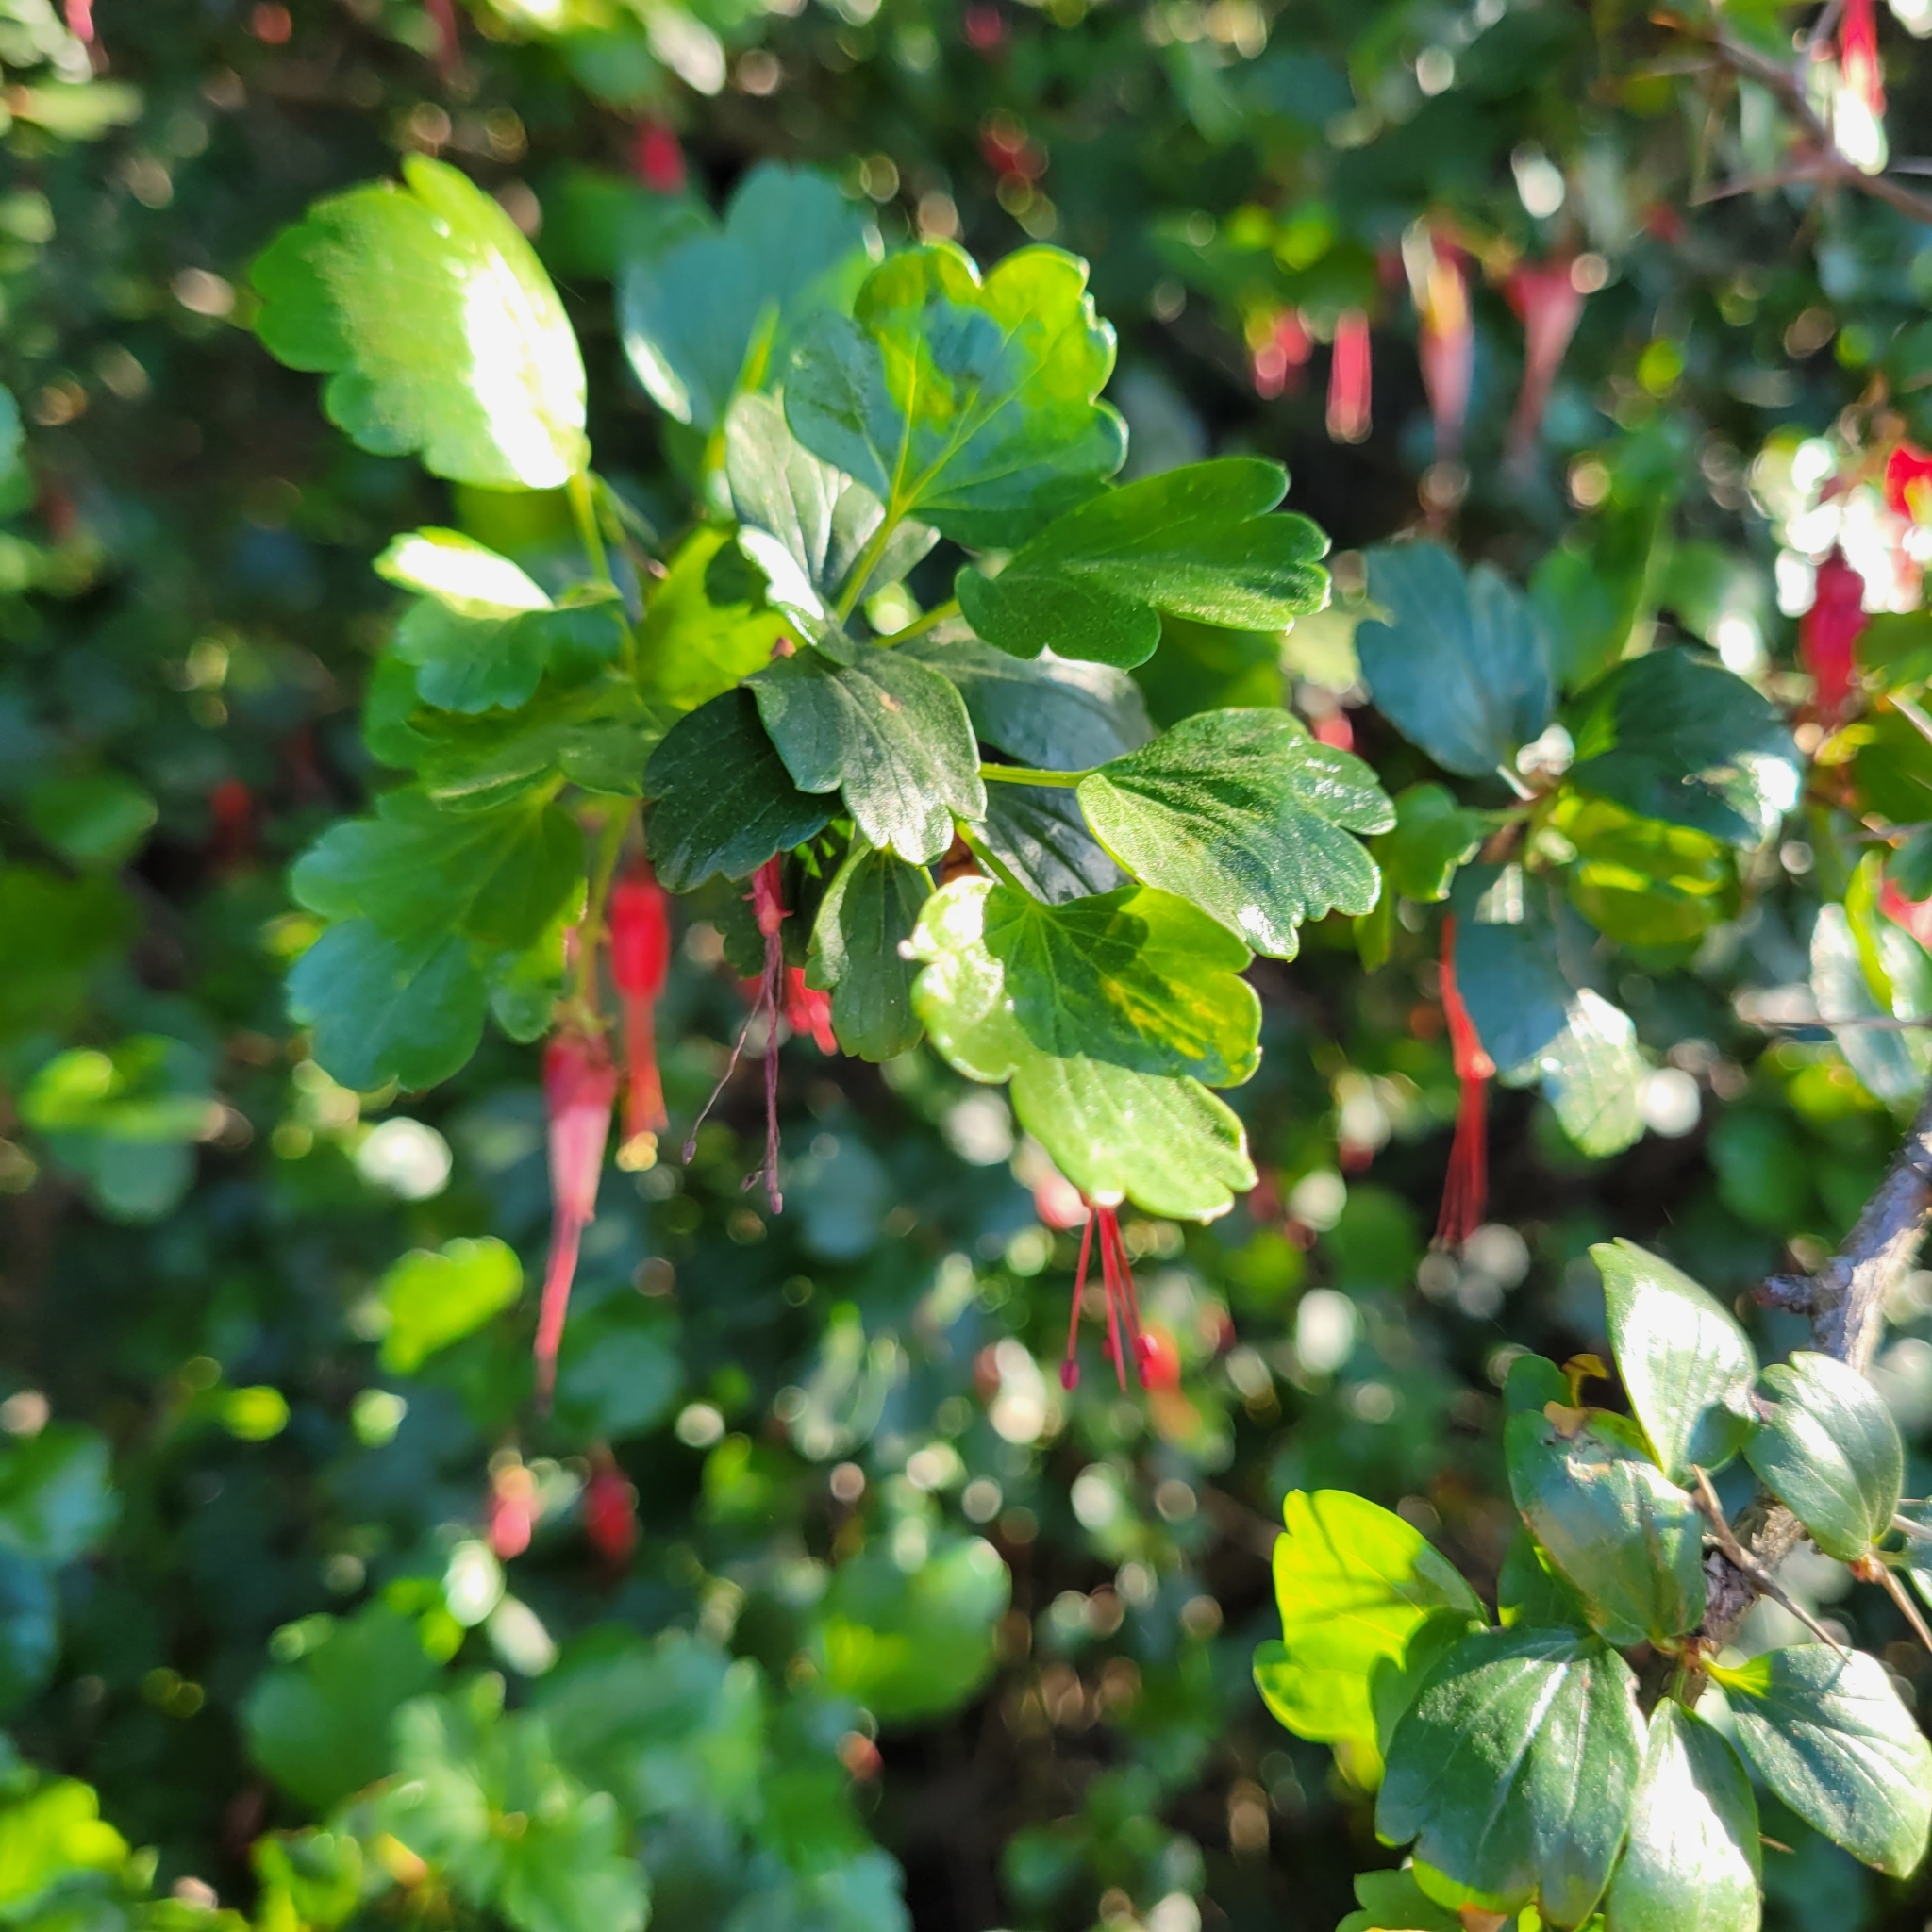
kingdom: Plantae
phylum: Tracheophyta
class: Magnoliopsida
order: Saxifragales
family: Grossulariaceae
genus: Ribes
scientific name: Ribes speciosum
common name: Fuchsia-flower gooseberry
